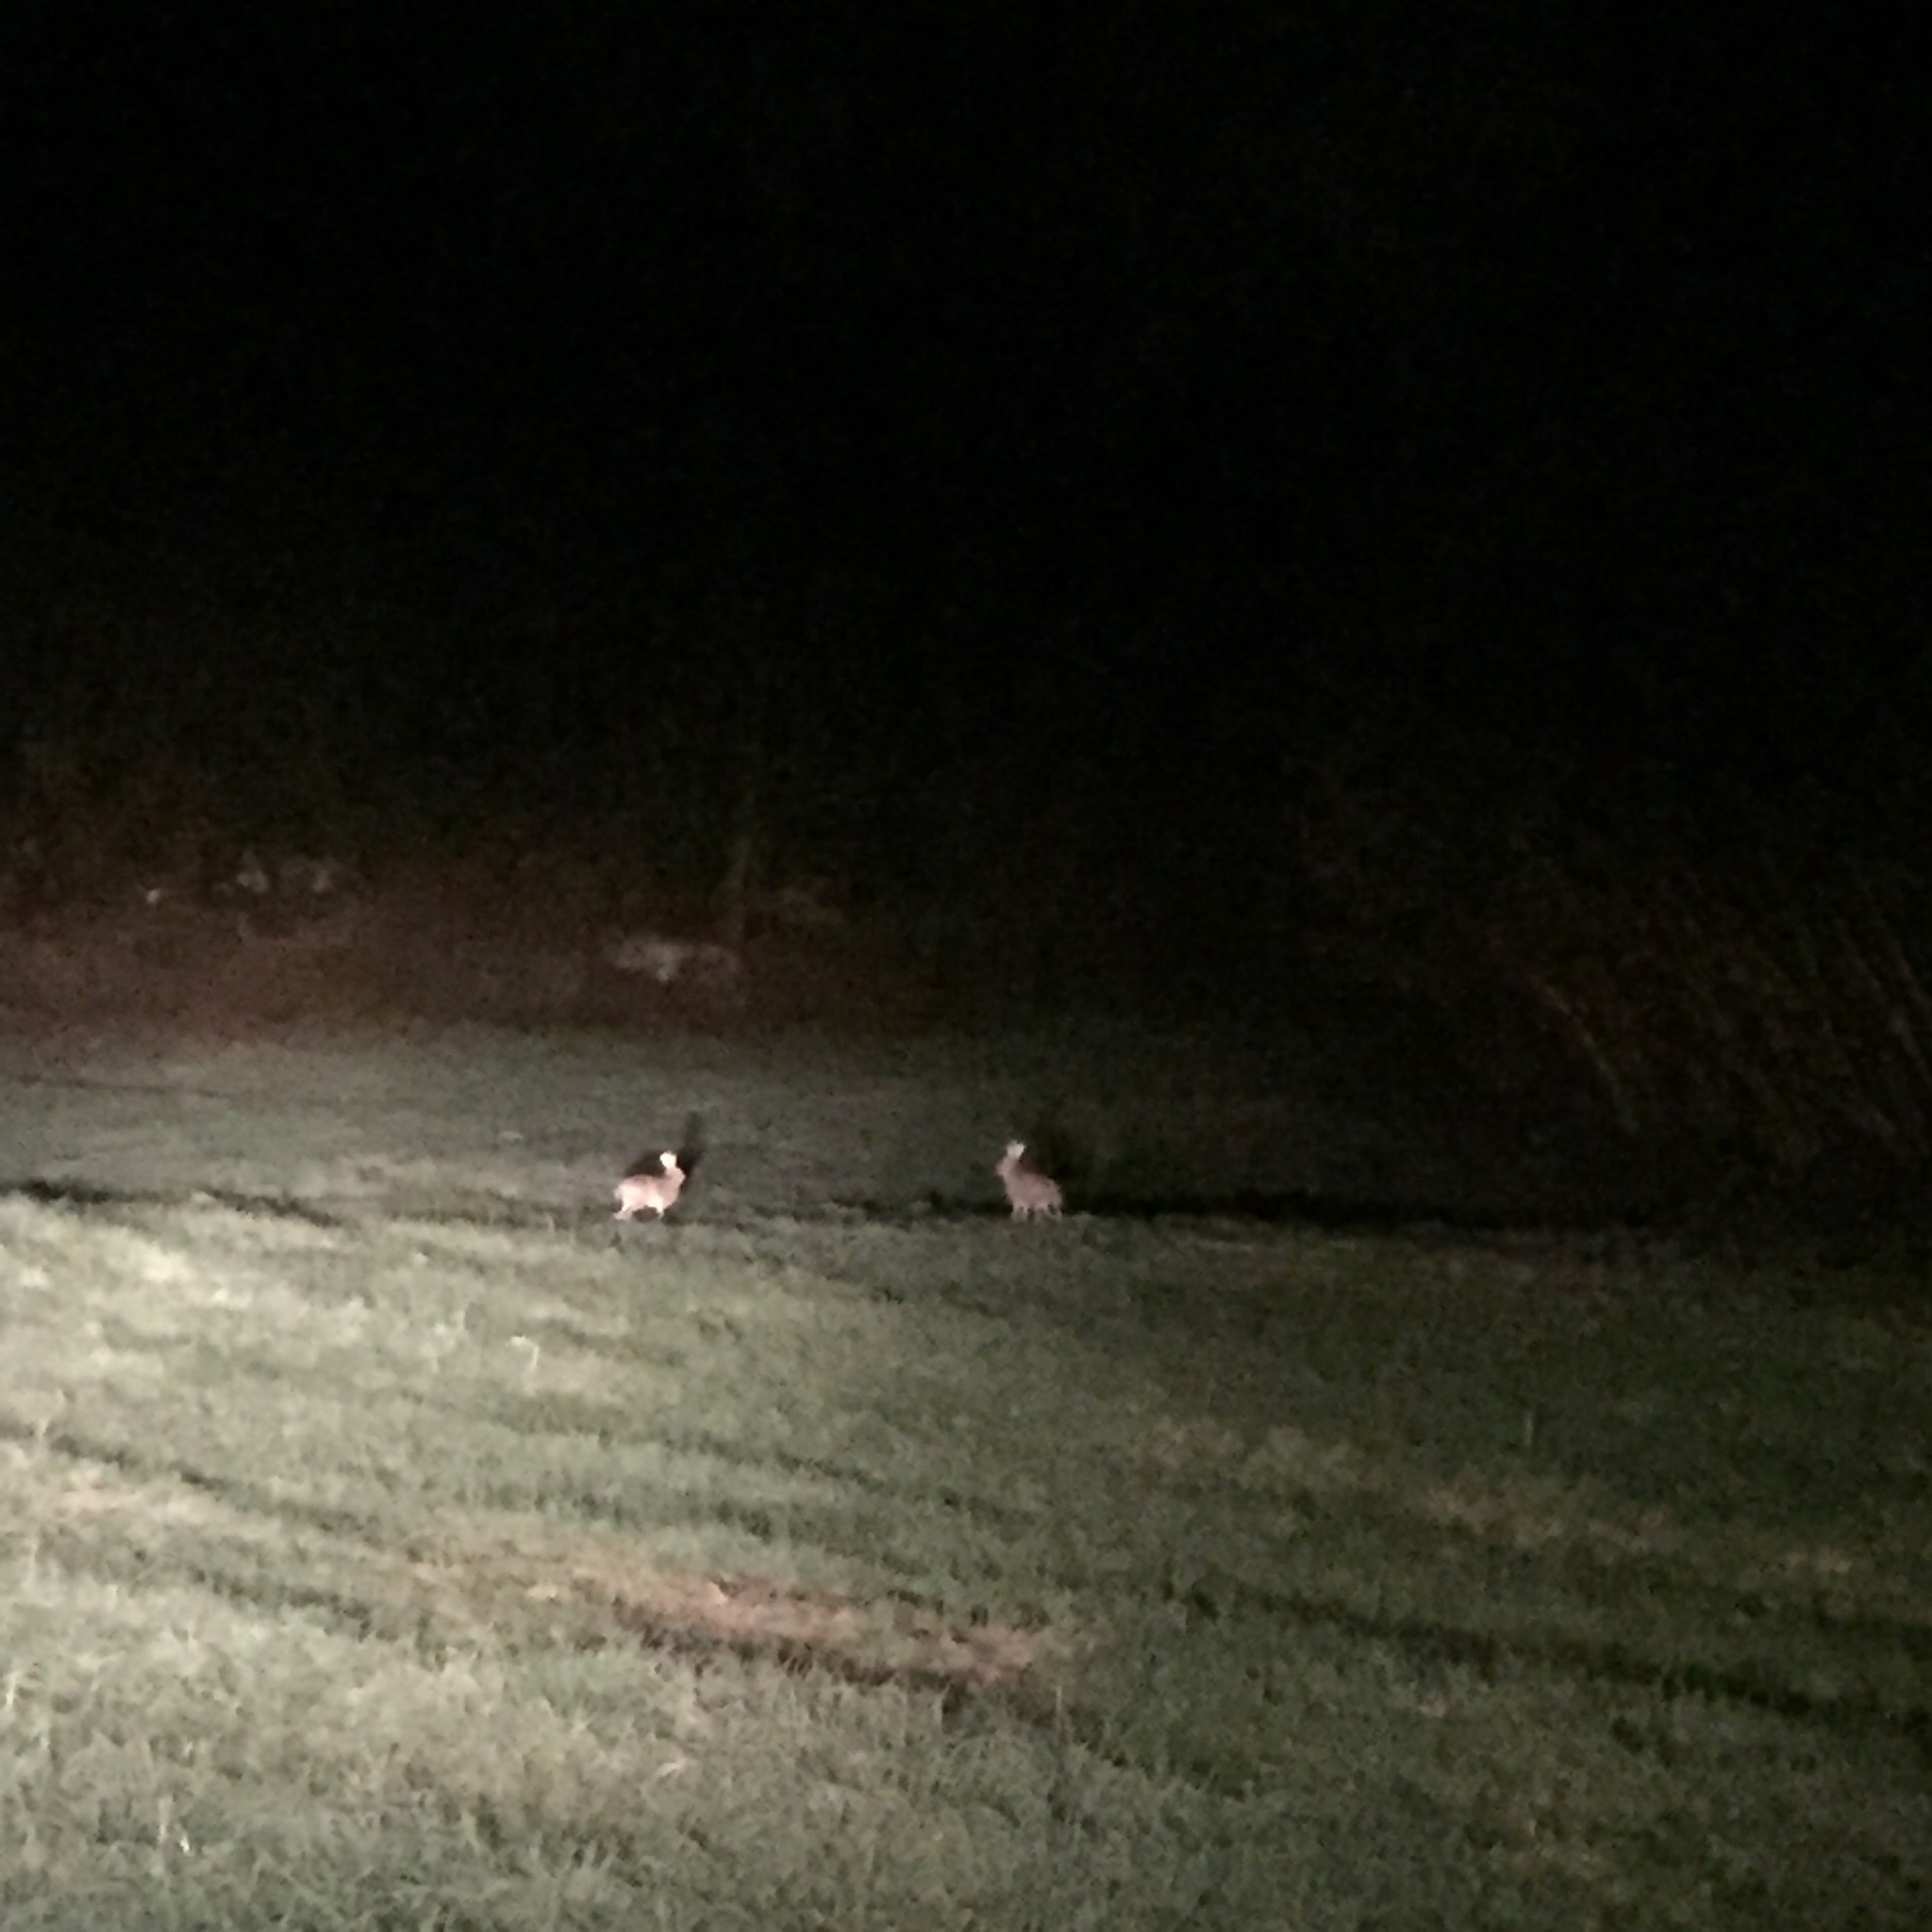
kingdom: Animalia
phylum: Chordata
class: Mammalia
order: Lagomorpha
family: Leporidae
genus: Lepus
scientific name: Lepus europaeus
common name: European hare
